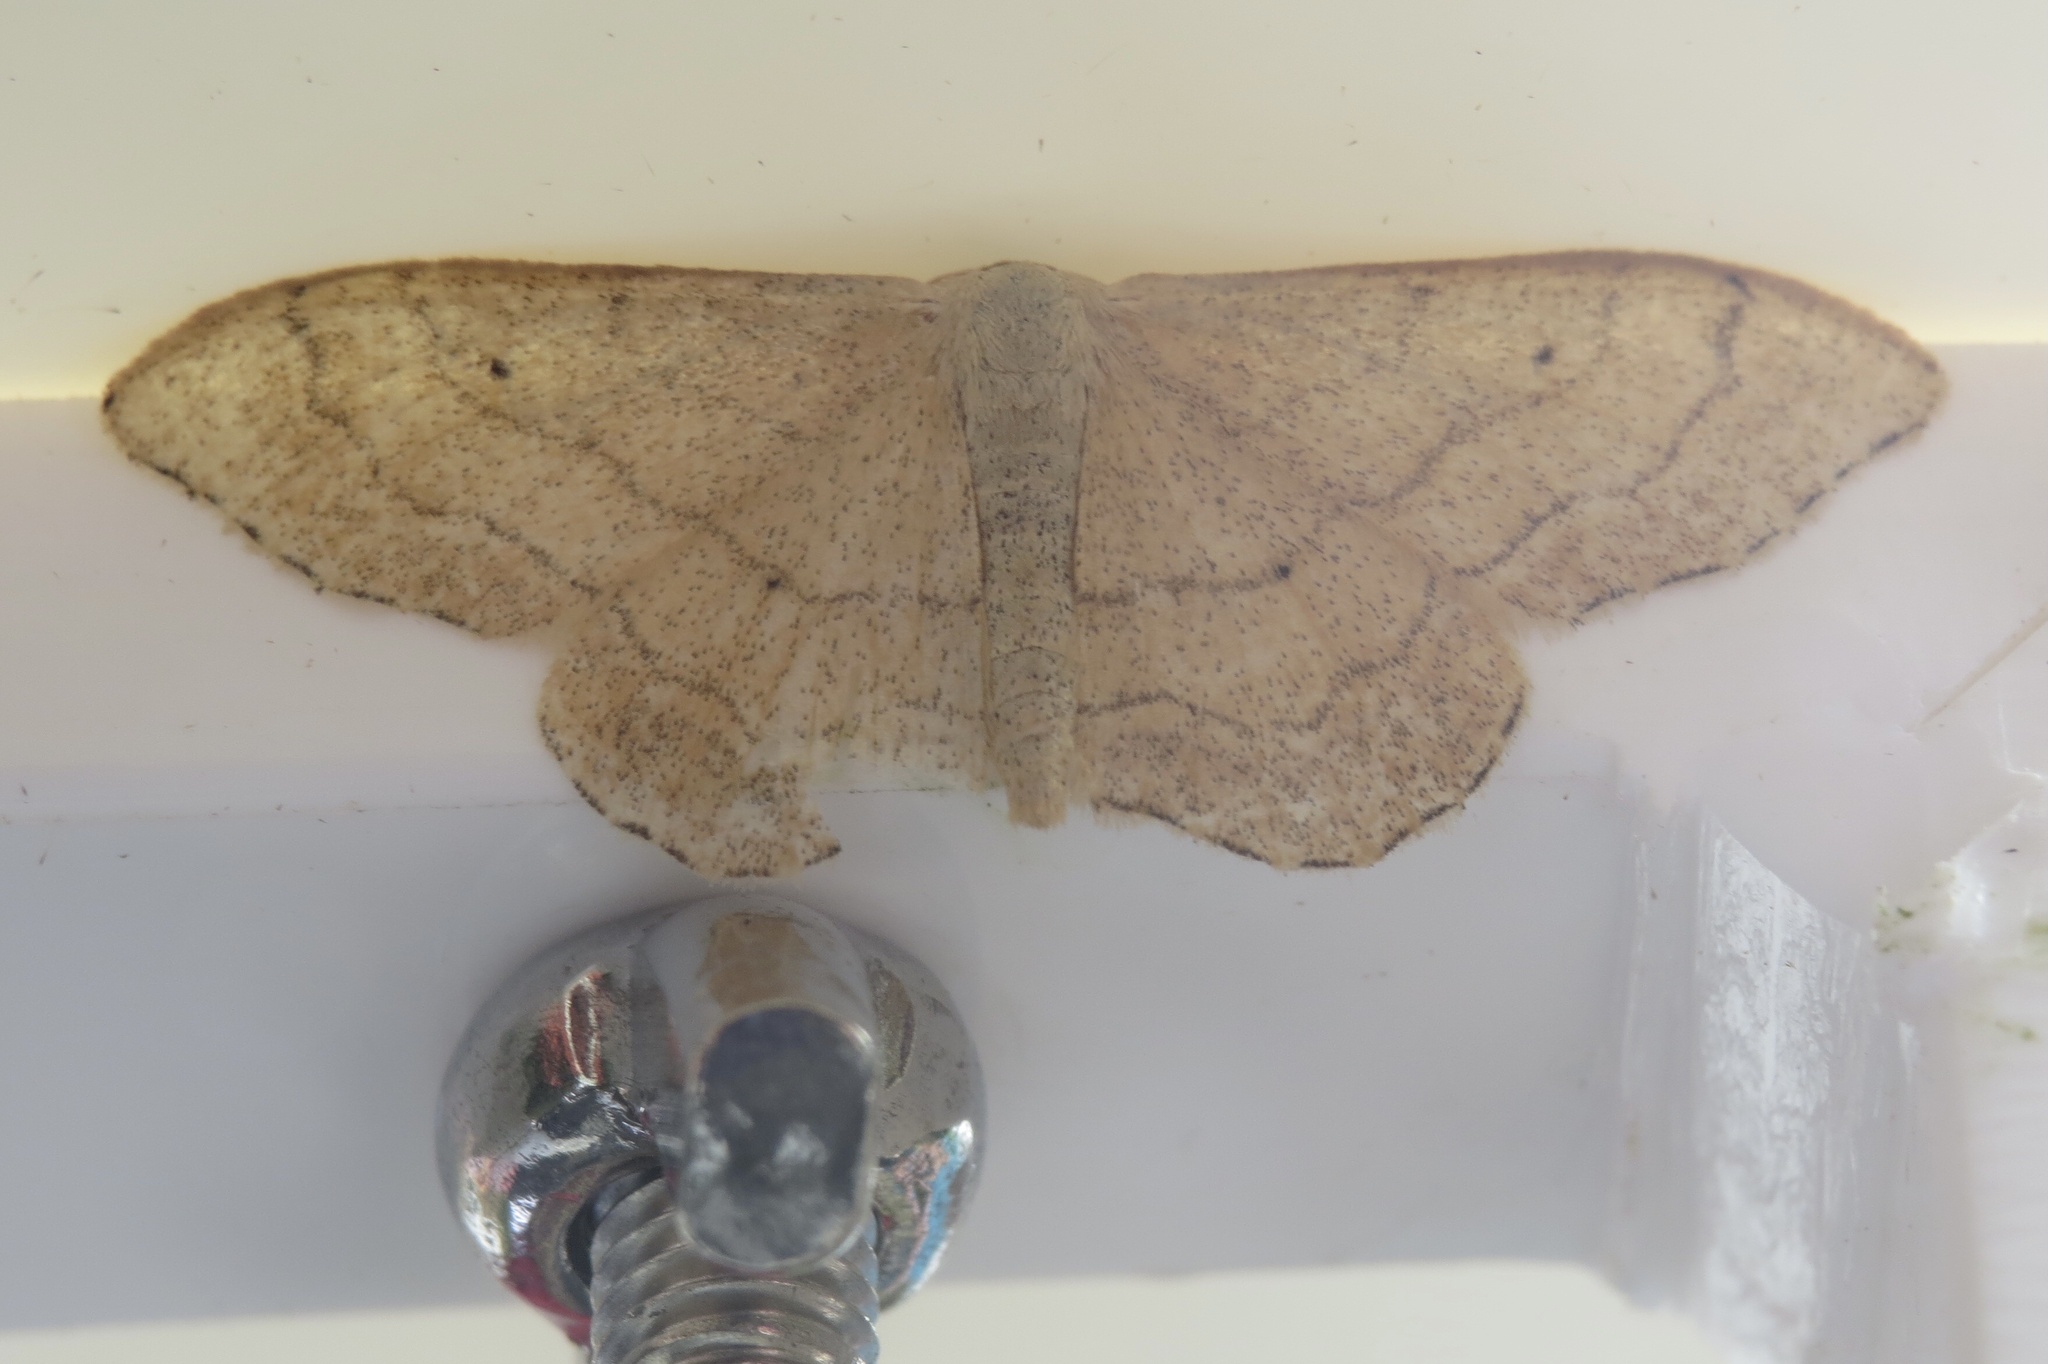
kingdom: Animalia
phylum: Arthropoda
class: Insecta
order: Lepidoptera
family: Geometridae
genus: Idaea
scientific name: Idaea aversata
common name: Riband wave
